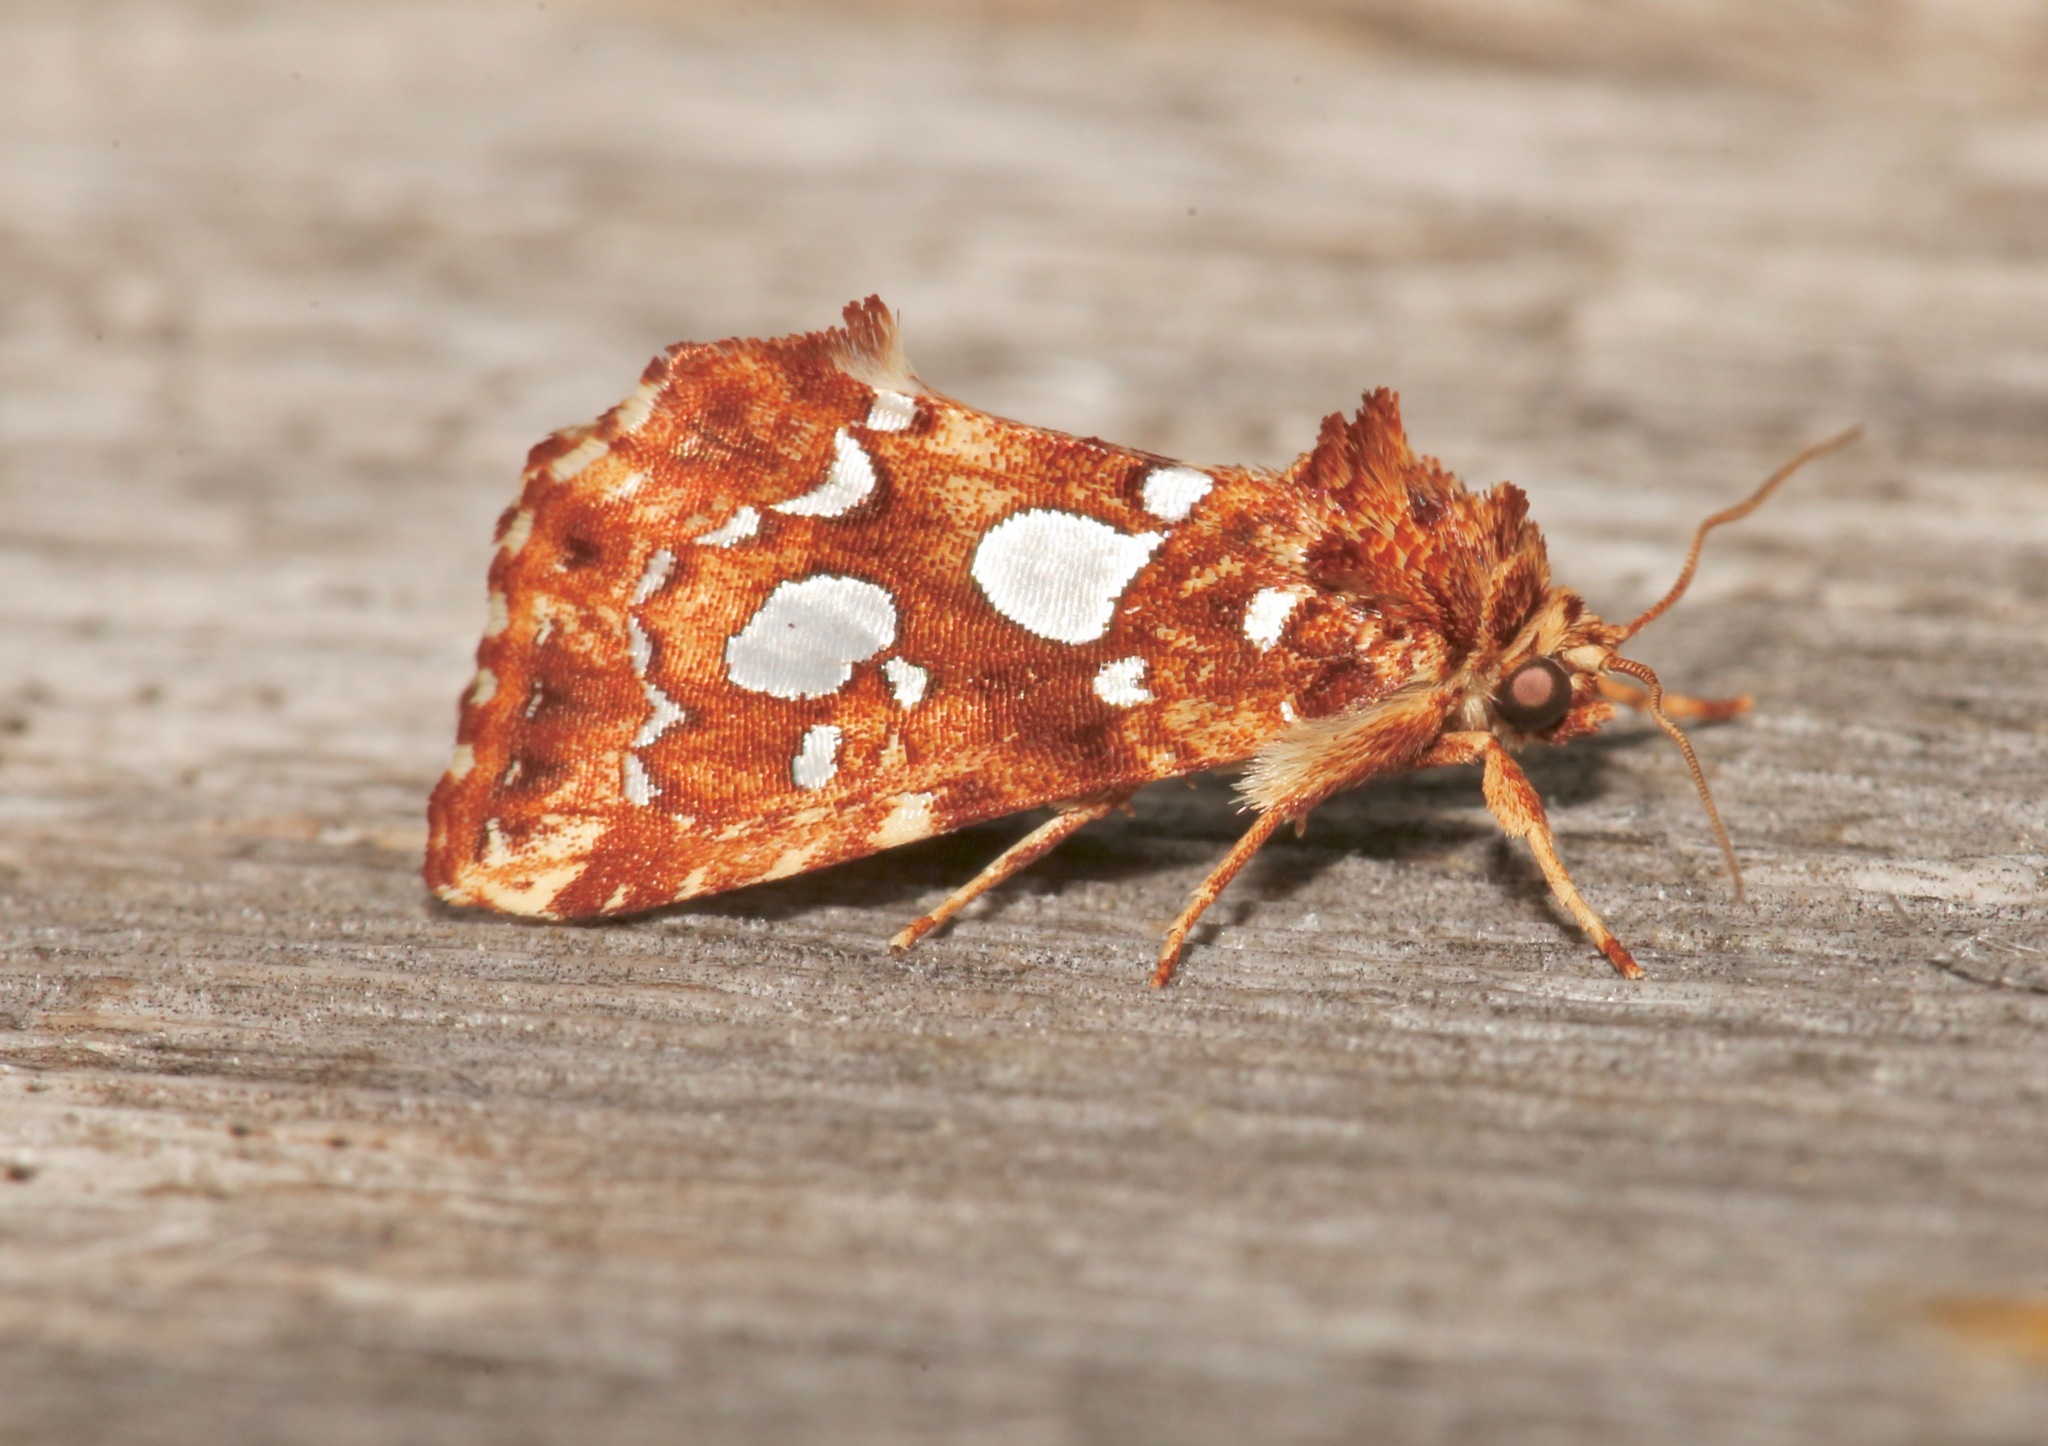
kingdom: Animalia
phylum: Arthropoda
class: Insecta
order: Lepidoptera
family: Noctuidae
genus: Callopistria
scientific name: Callopistria cordata
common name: Silver-spotted fern moth
